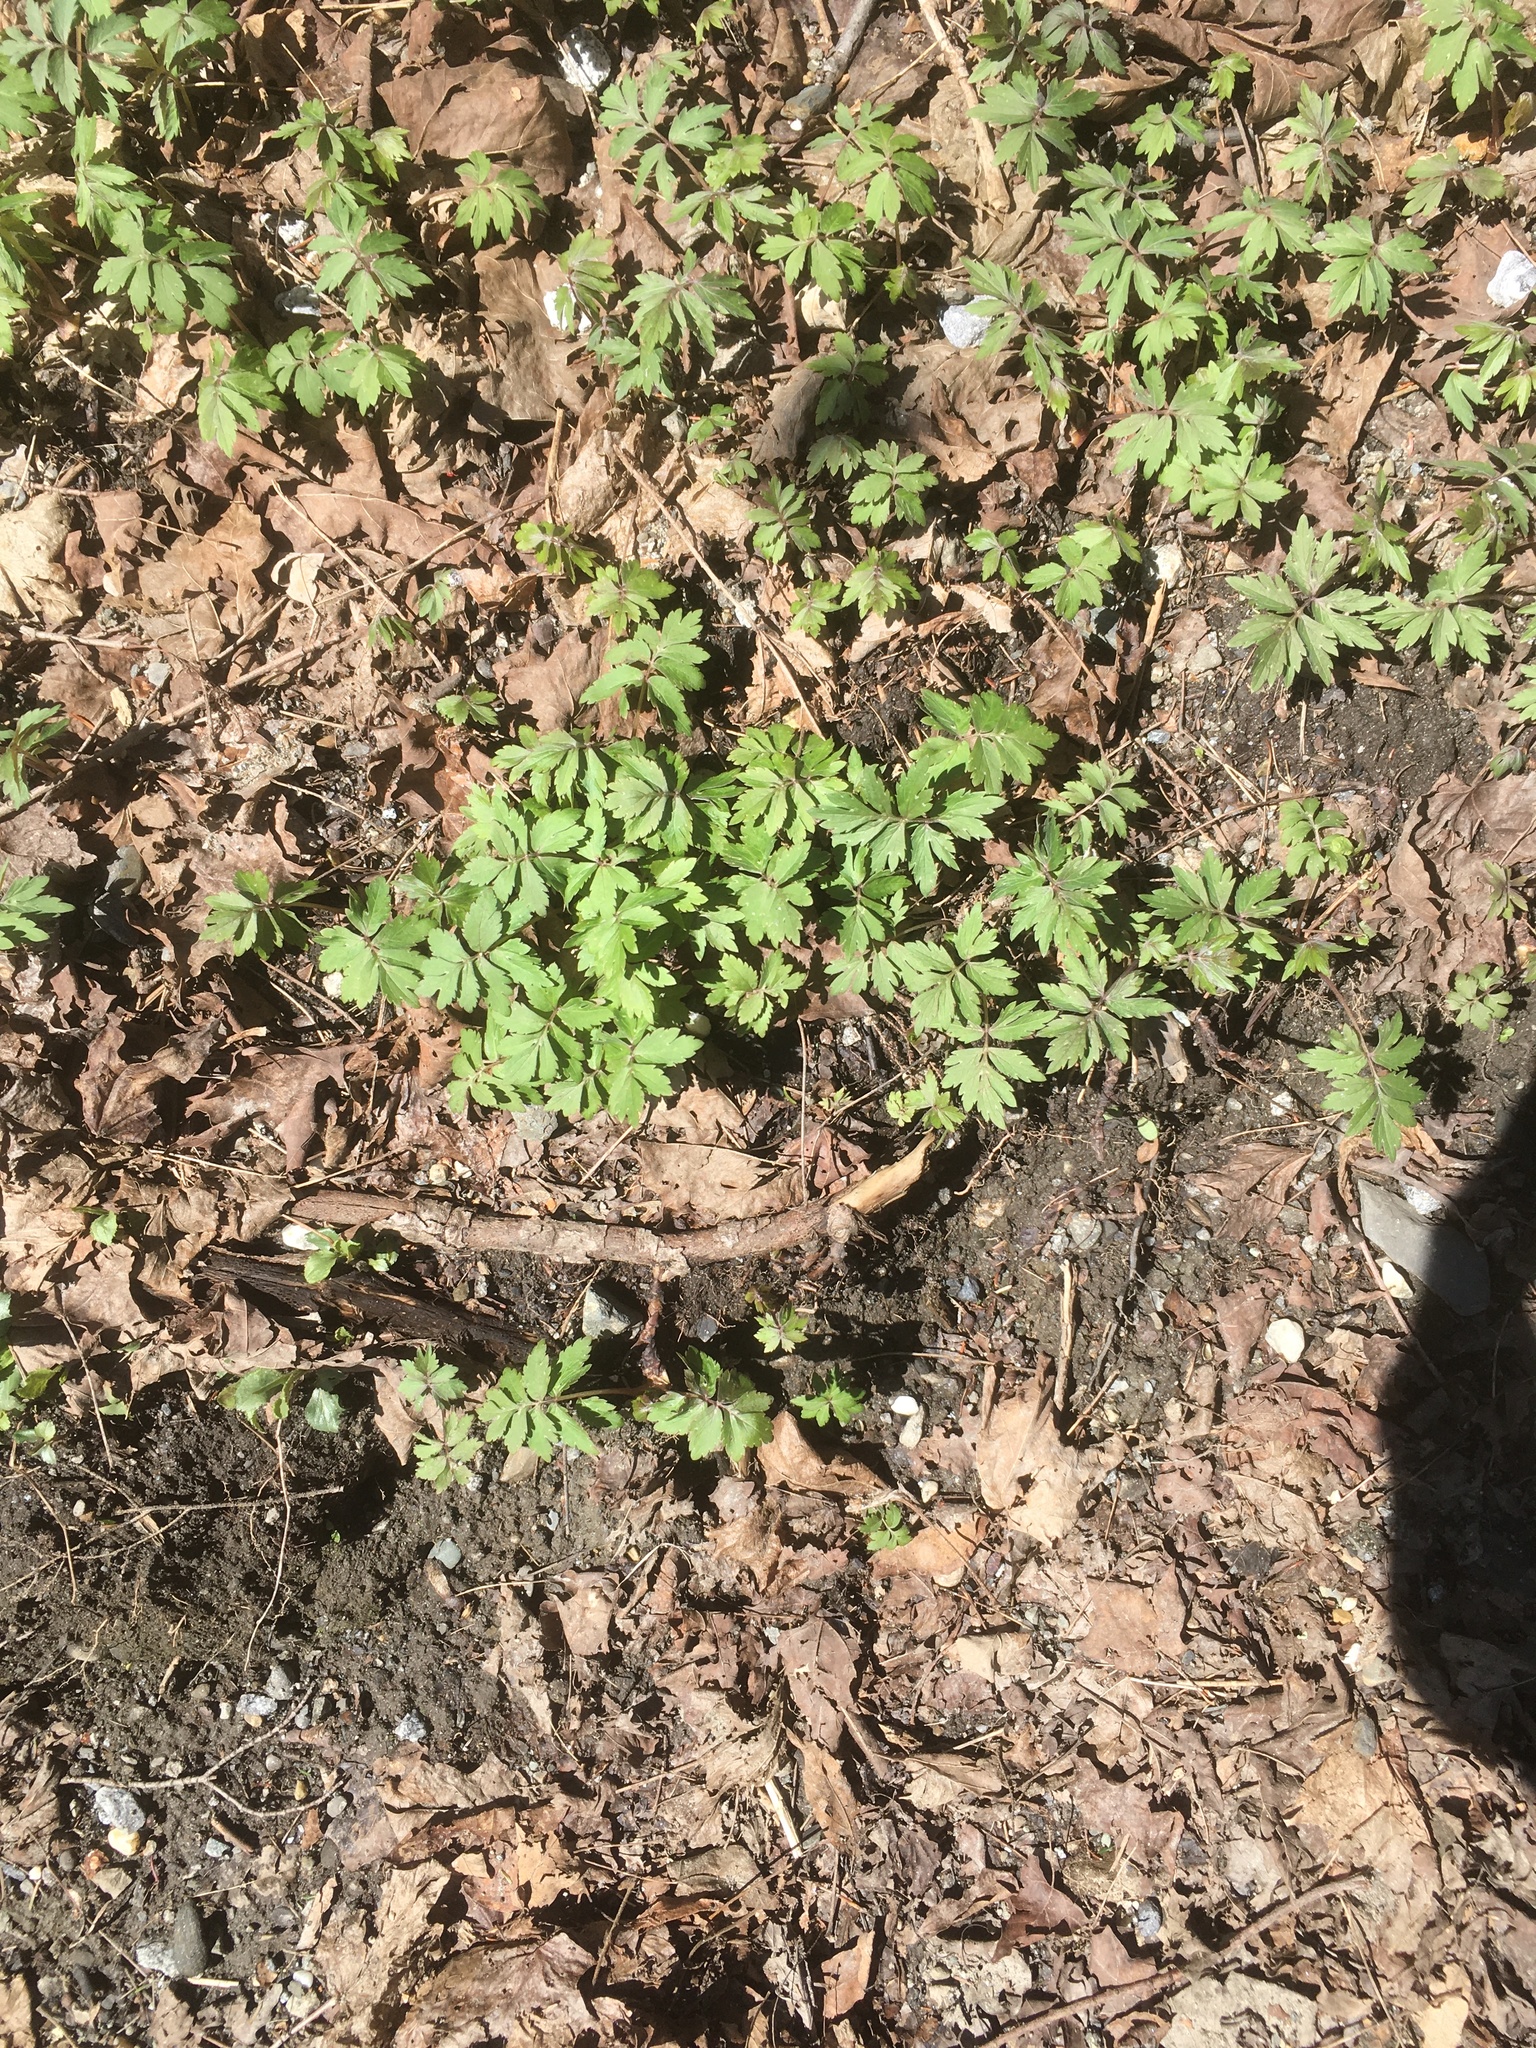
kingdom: Plantae
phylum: Tracheophyta
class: Magnoliopsida
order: Boraginales
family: Hydrophyllaceae
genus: Hydrophyllum
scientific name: Hydrophyllum virginianum
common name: Virginia waterleaf
